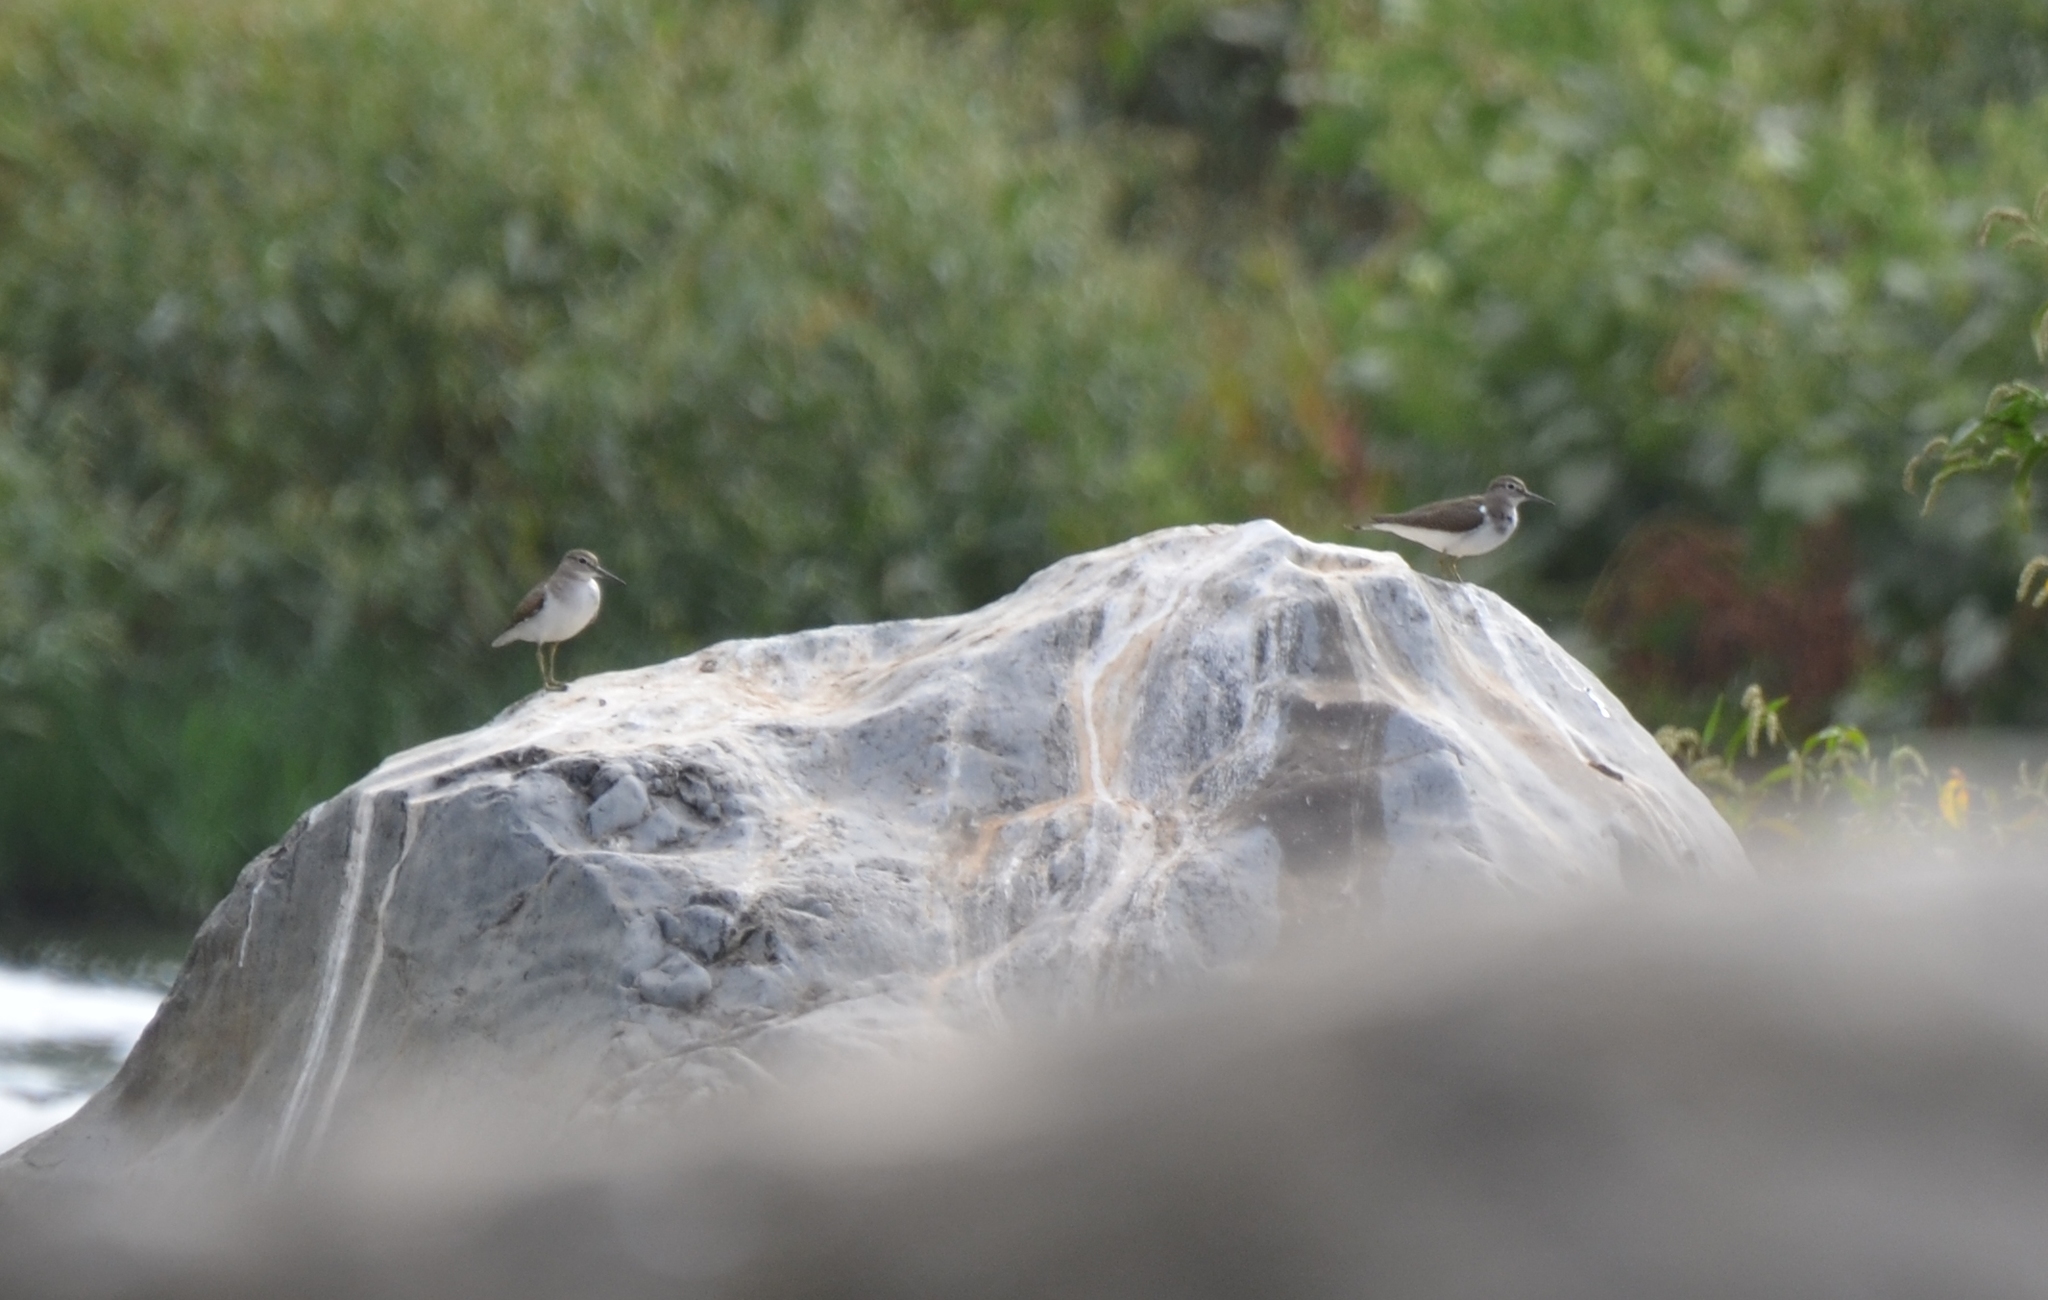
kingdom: Animalia
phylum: Chordata
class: Aves
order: Charadriiformes
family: Scolopacidae
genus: Actitis
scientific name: Actitis hypoleucos
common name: Common sandpiper
